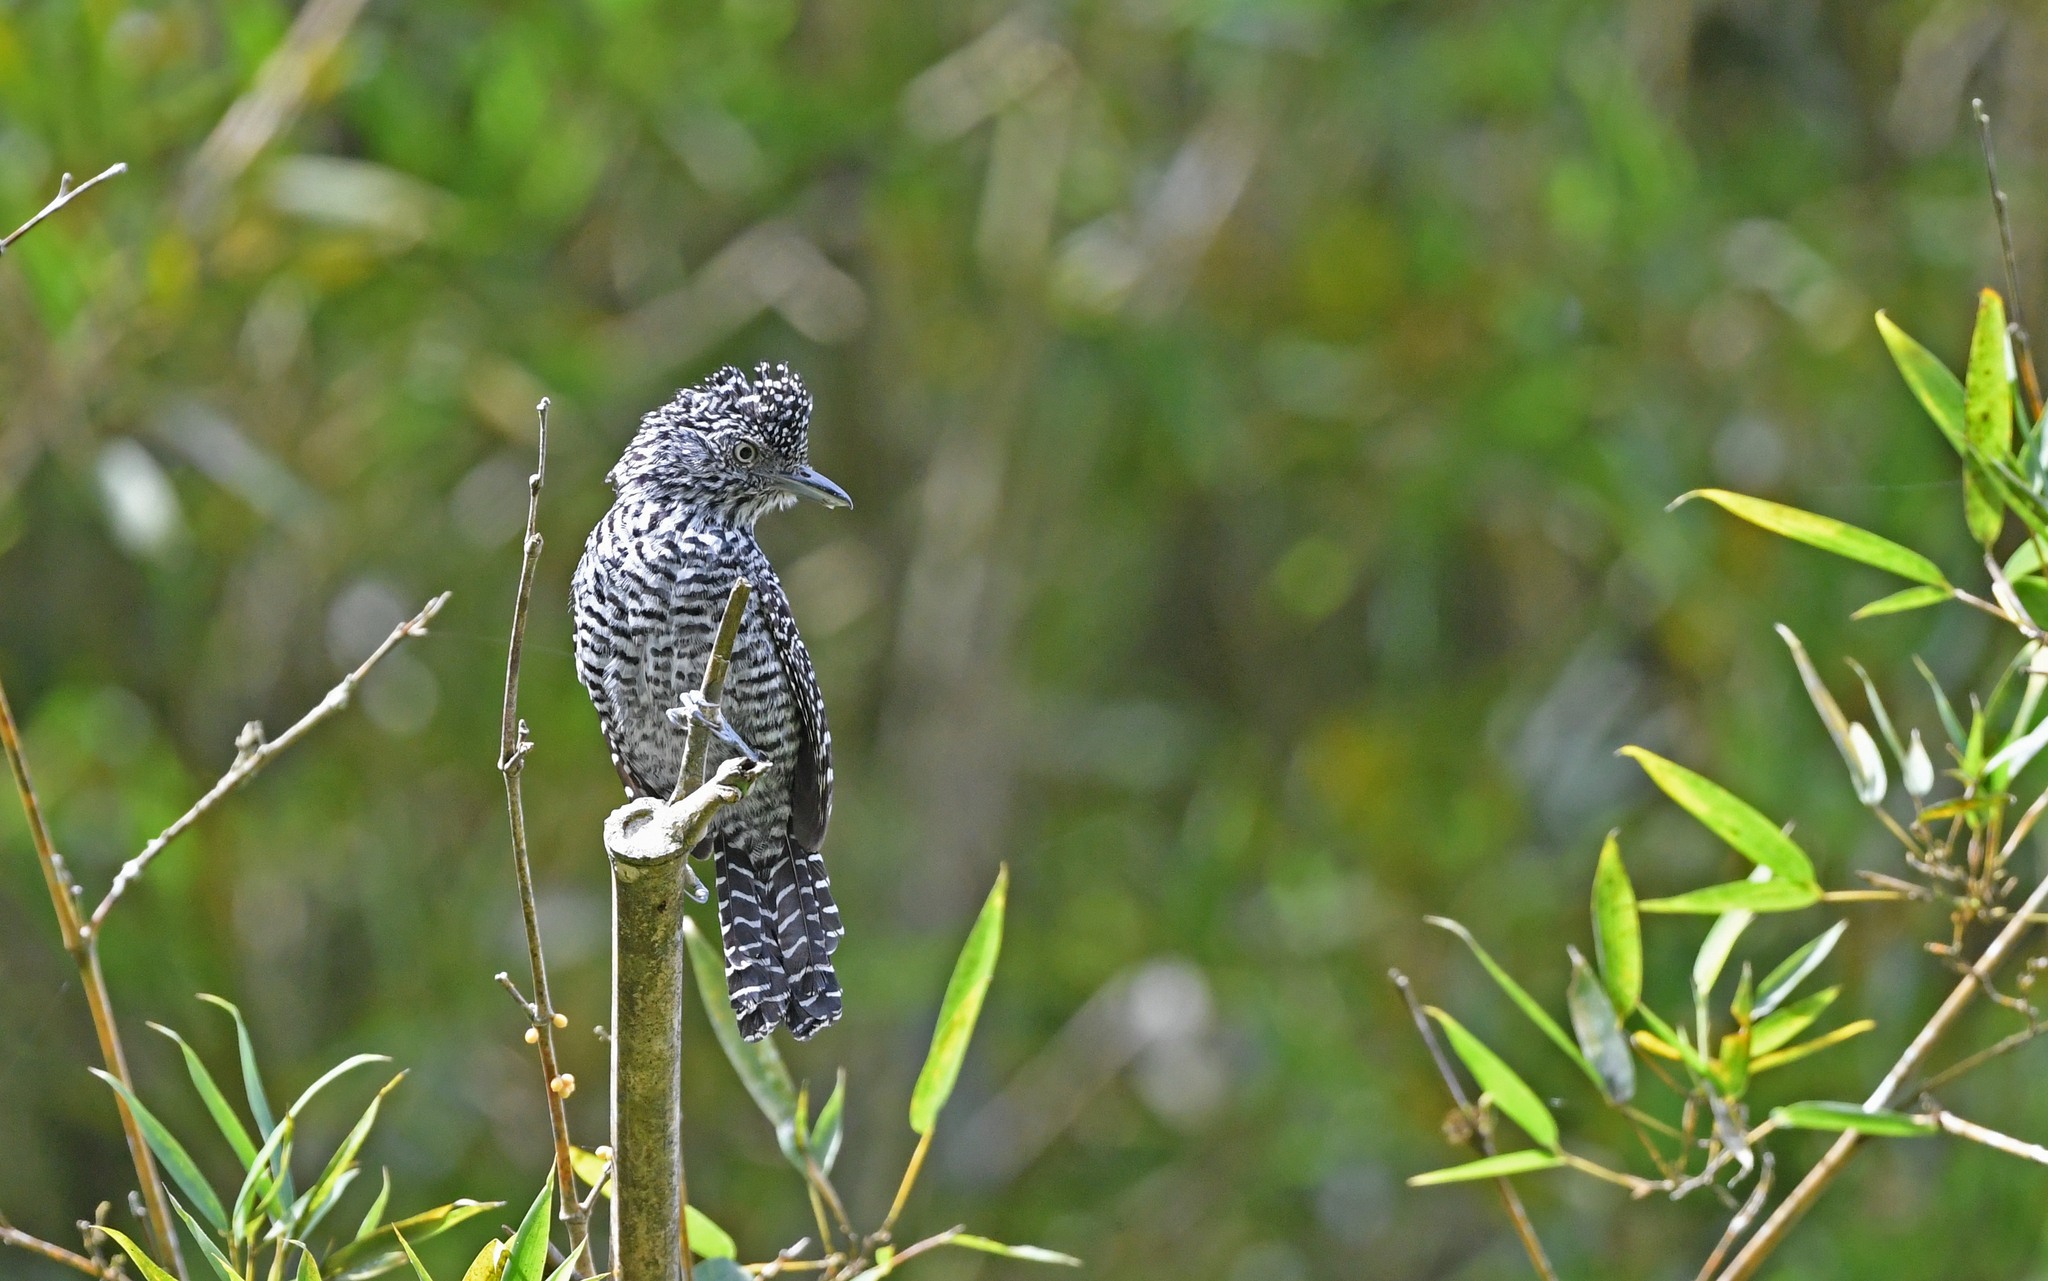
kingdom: Animalia
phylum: Chordata
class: Aves
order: Passeriformes
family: Thamnophilidae
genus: Thamnophilus
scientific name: Thamnophilus multistriatus
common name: Bar-crested antshrike
